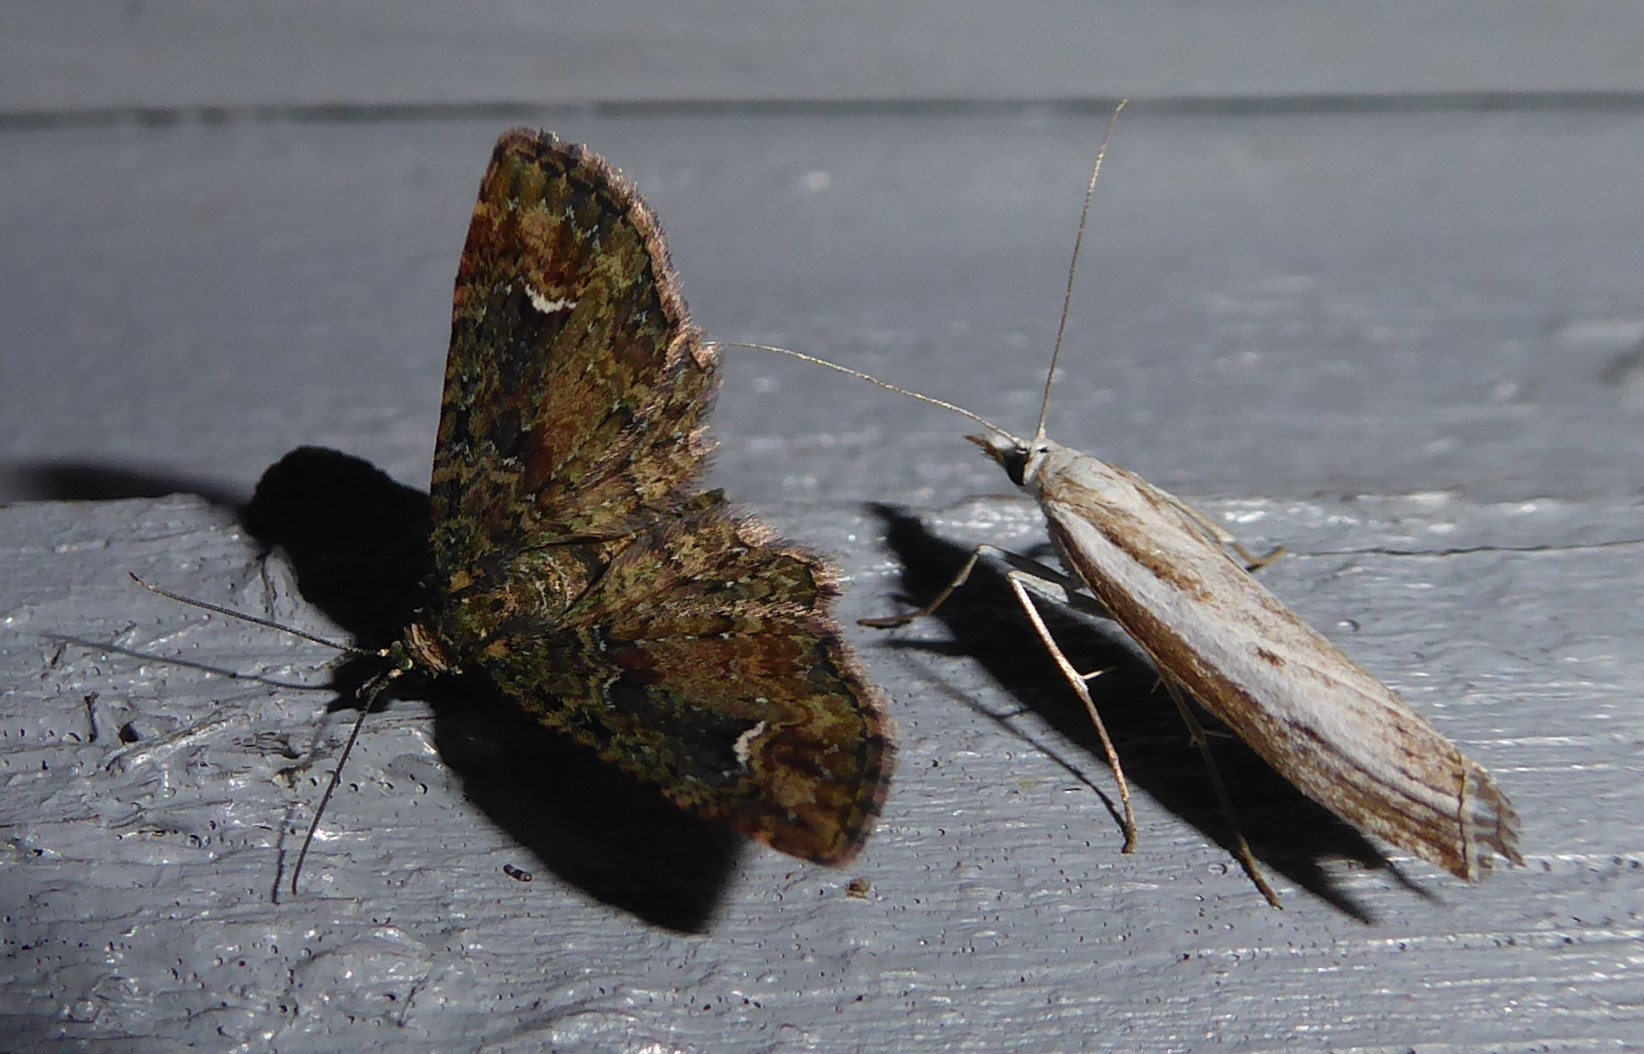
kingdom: Animalia
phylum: Arthropoda
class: Insecta
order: Lepidoptera
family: Geometridae
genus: Pasiphilodes
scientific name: Pasiphilodes testulata
